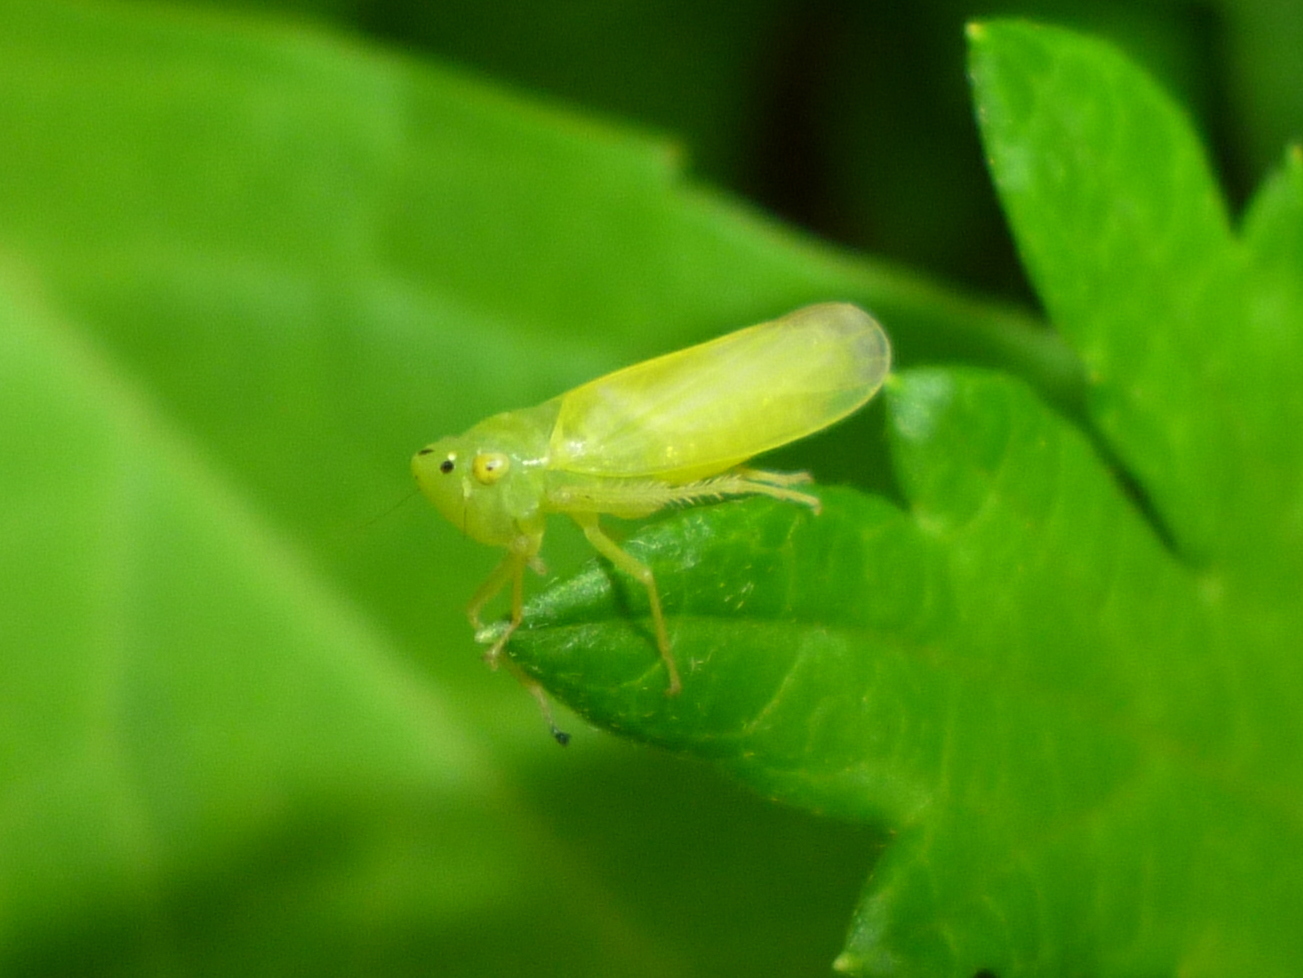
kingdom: Animalia
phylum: Arthropoda
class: Insecta
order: Hemiptera
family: Cicadellidae
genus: Pagaronia
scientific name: Pagaronia minor
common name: Leafhopper
